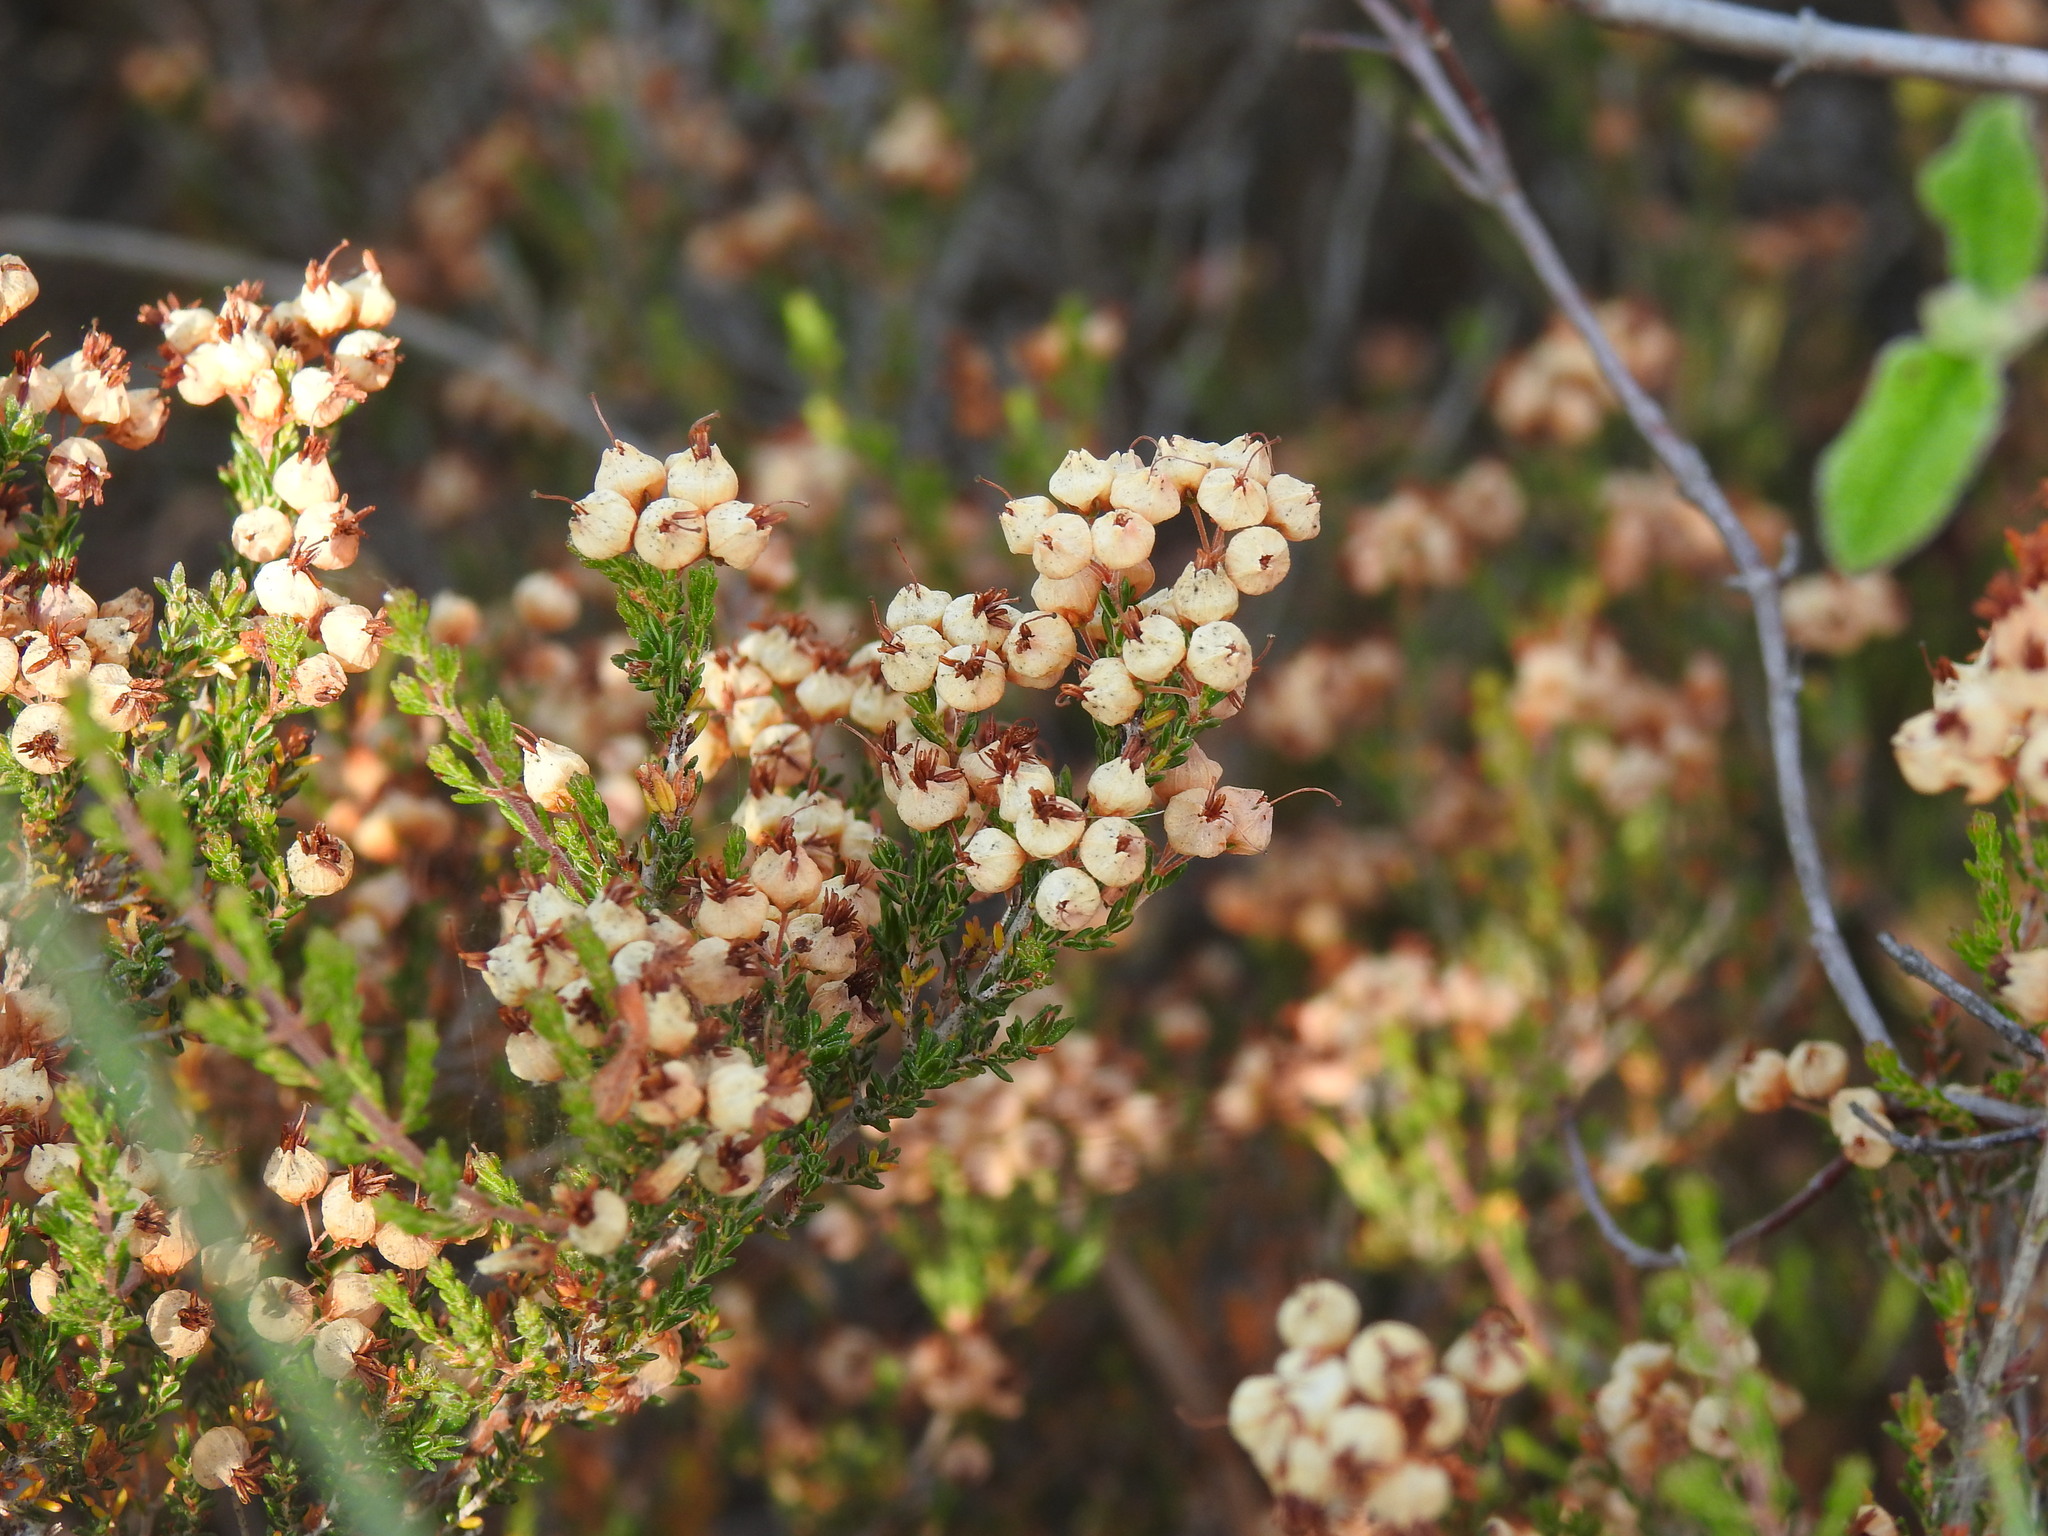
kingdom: Plantae
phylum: Tracheophyta
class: Magnoliopsida
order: Ericales
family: Ericaceae
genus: Erica
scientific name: Erica umbellata
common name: Dwarf spanish heath
